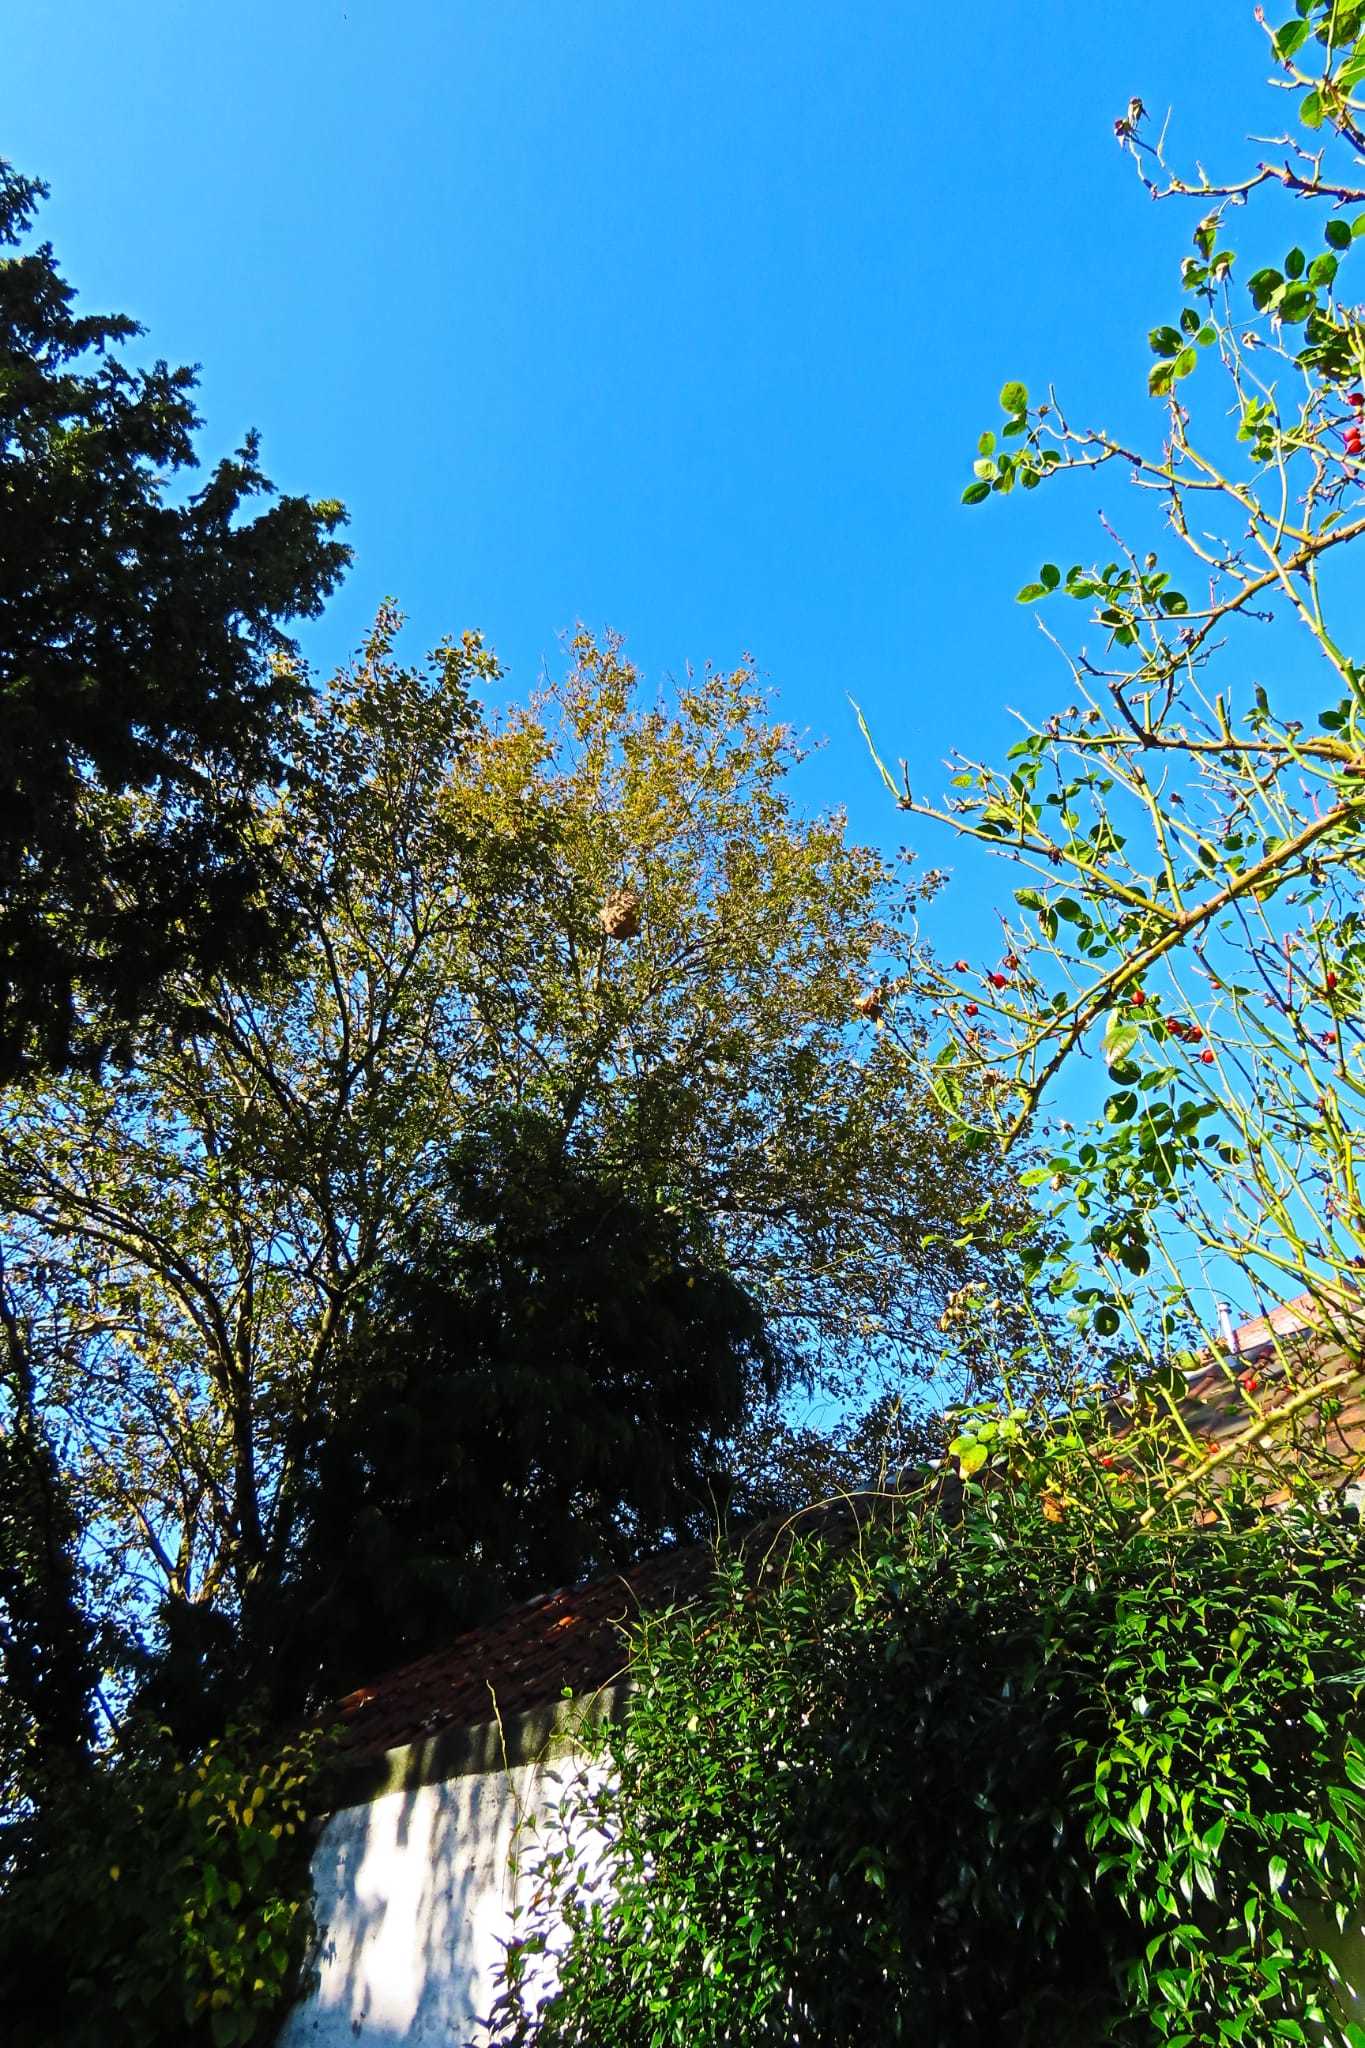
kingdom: Animalia
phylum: Arthropoda
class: Insecta
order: Hymenoptera
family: Vespidae
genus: Vespa
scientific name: Vespa velutina
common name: Asian hornet
